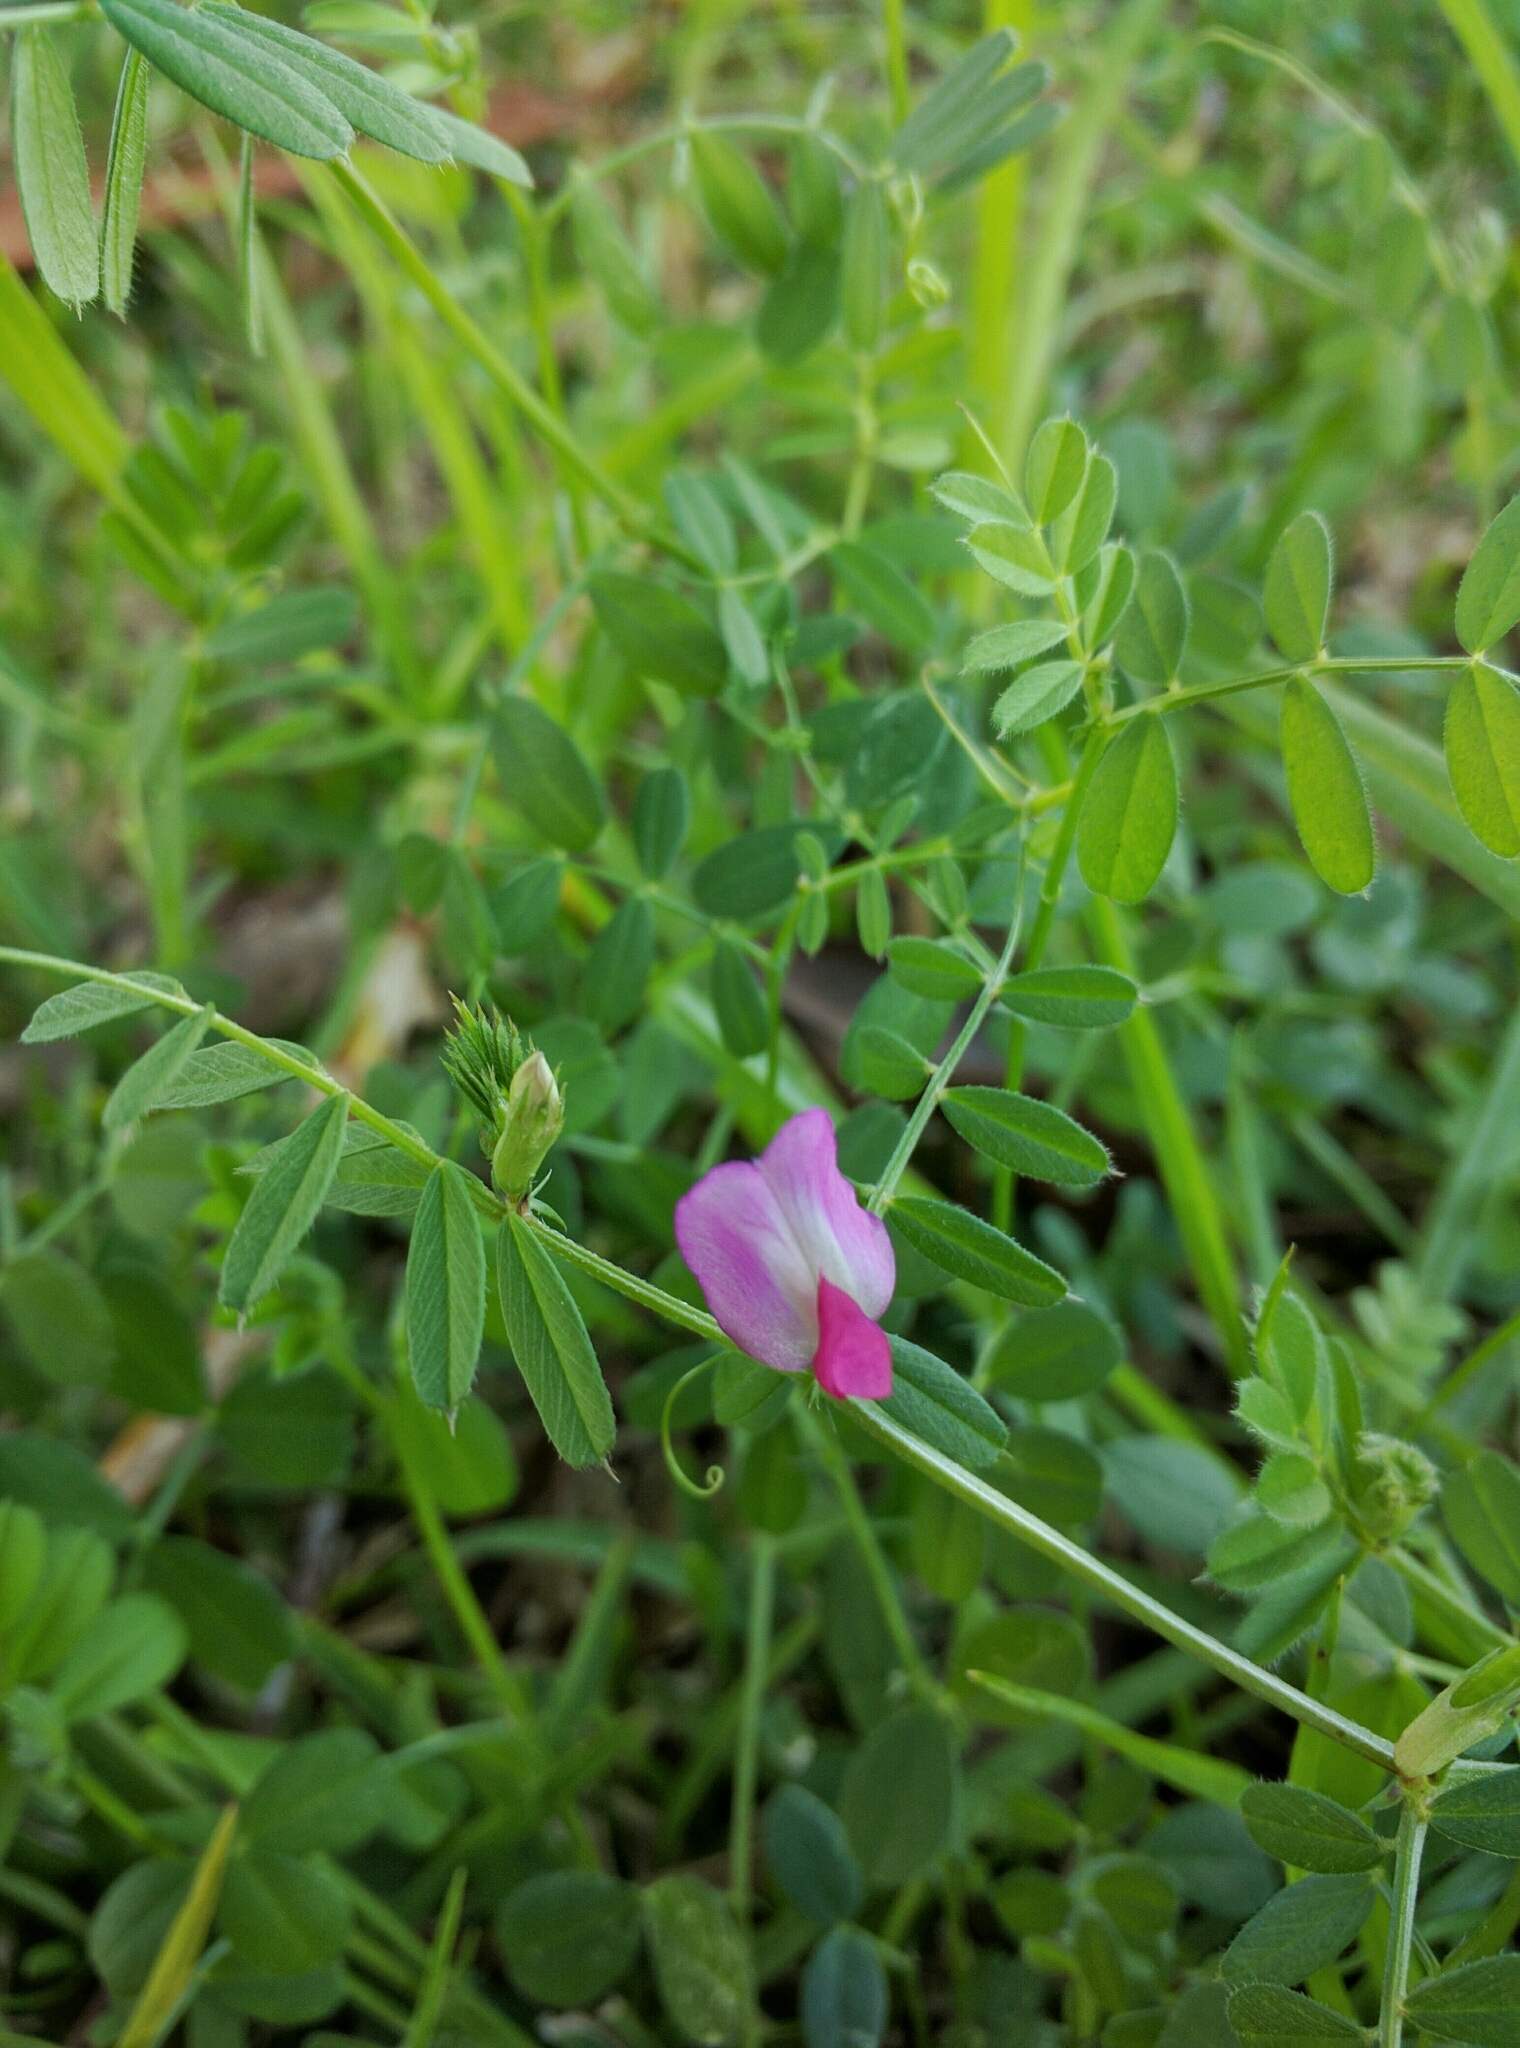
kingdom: Plantae
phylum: Tracheophyta
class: Magnoliopsida
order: Fabales
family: Fabaceae
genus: Vicia
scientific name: Vicia sativa
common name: Garden vetch
